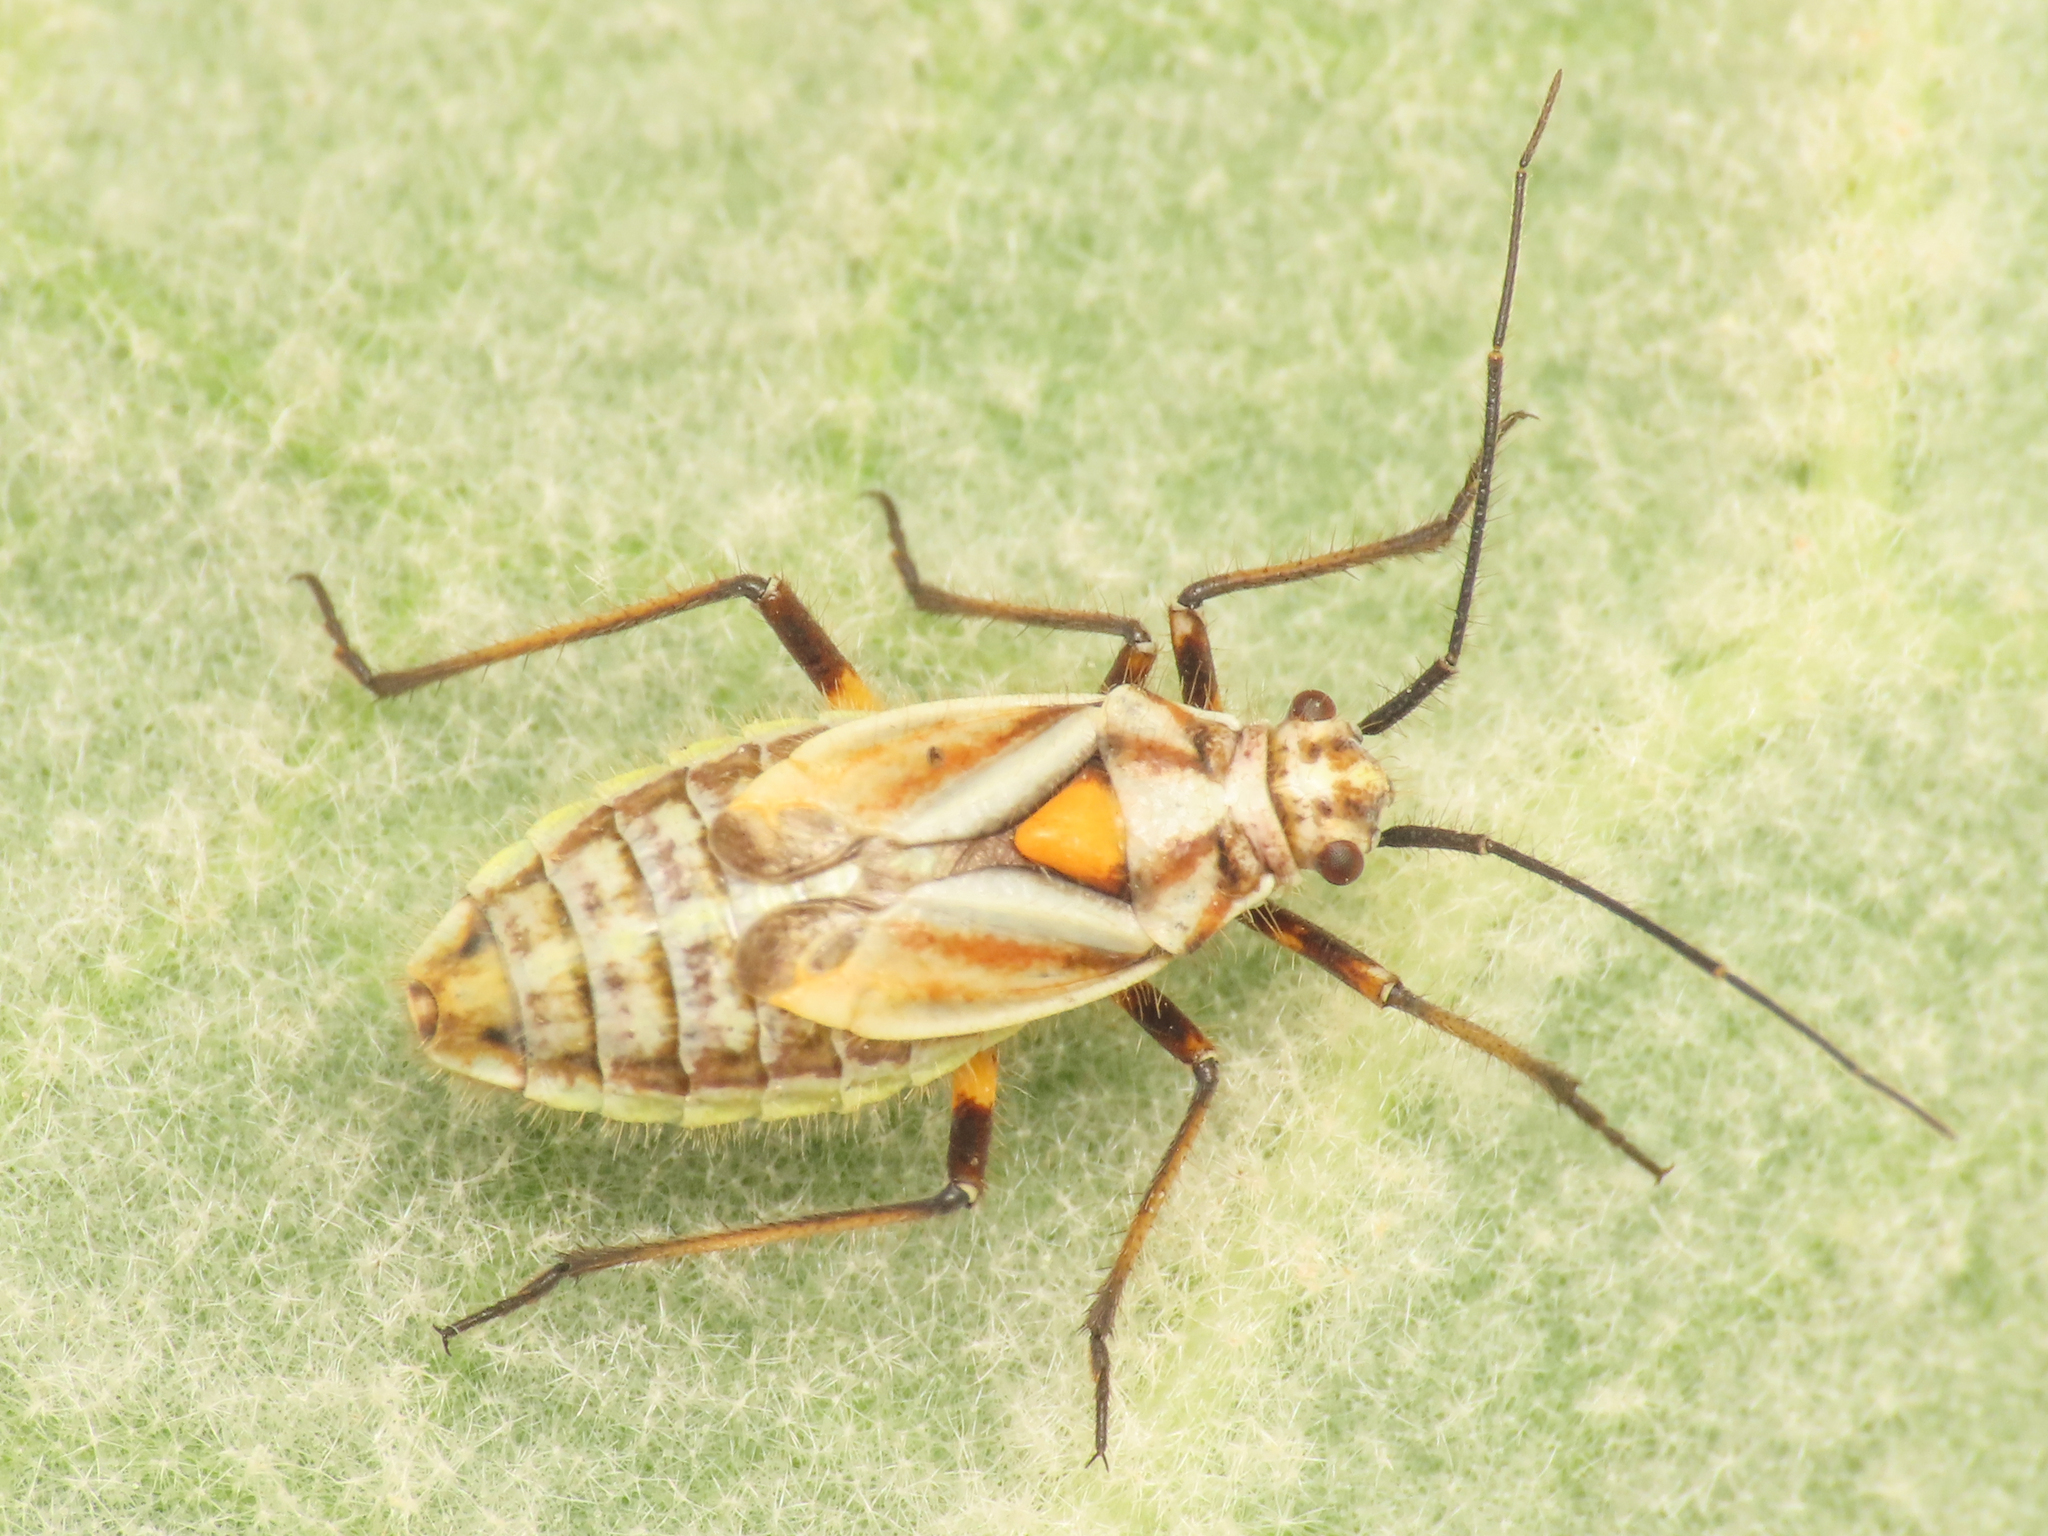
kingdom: Animalia
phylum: Arthropoda
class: Insecta
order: Hemiptera
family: Miridae
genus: Horistus
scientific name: Horistus elongatus
